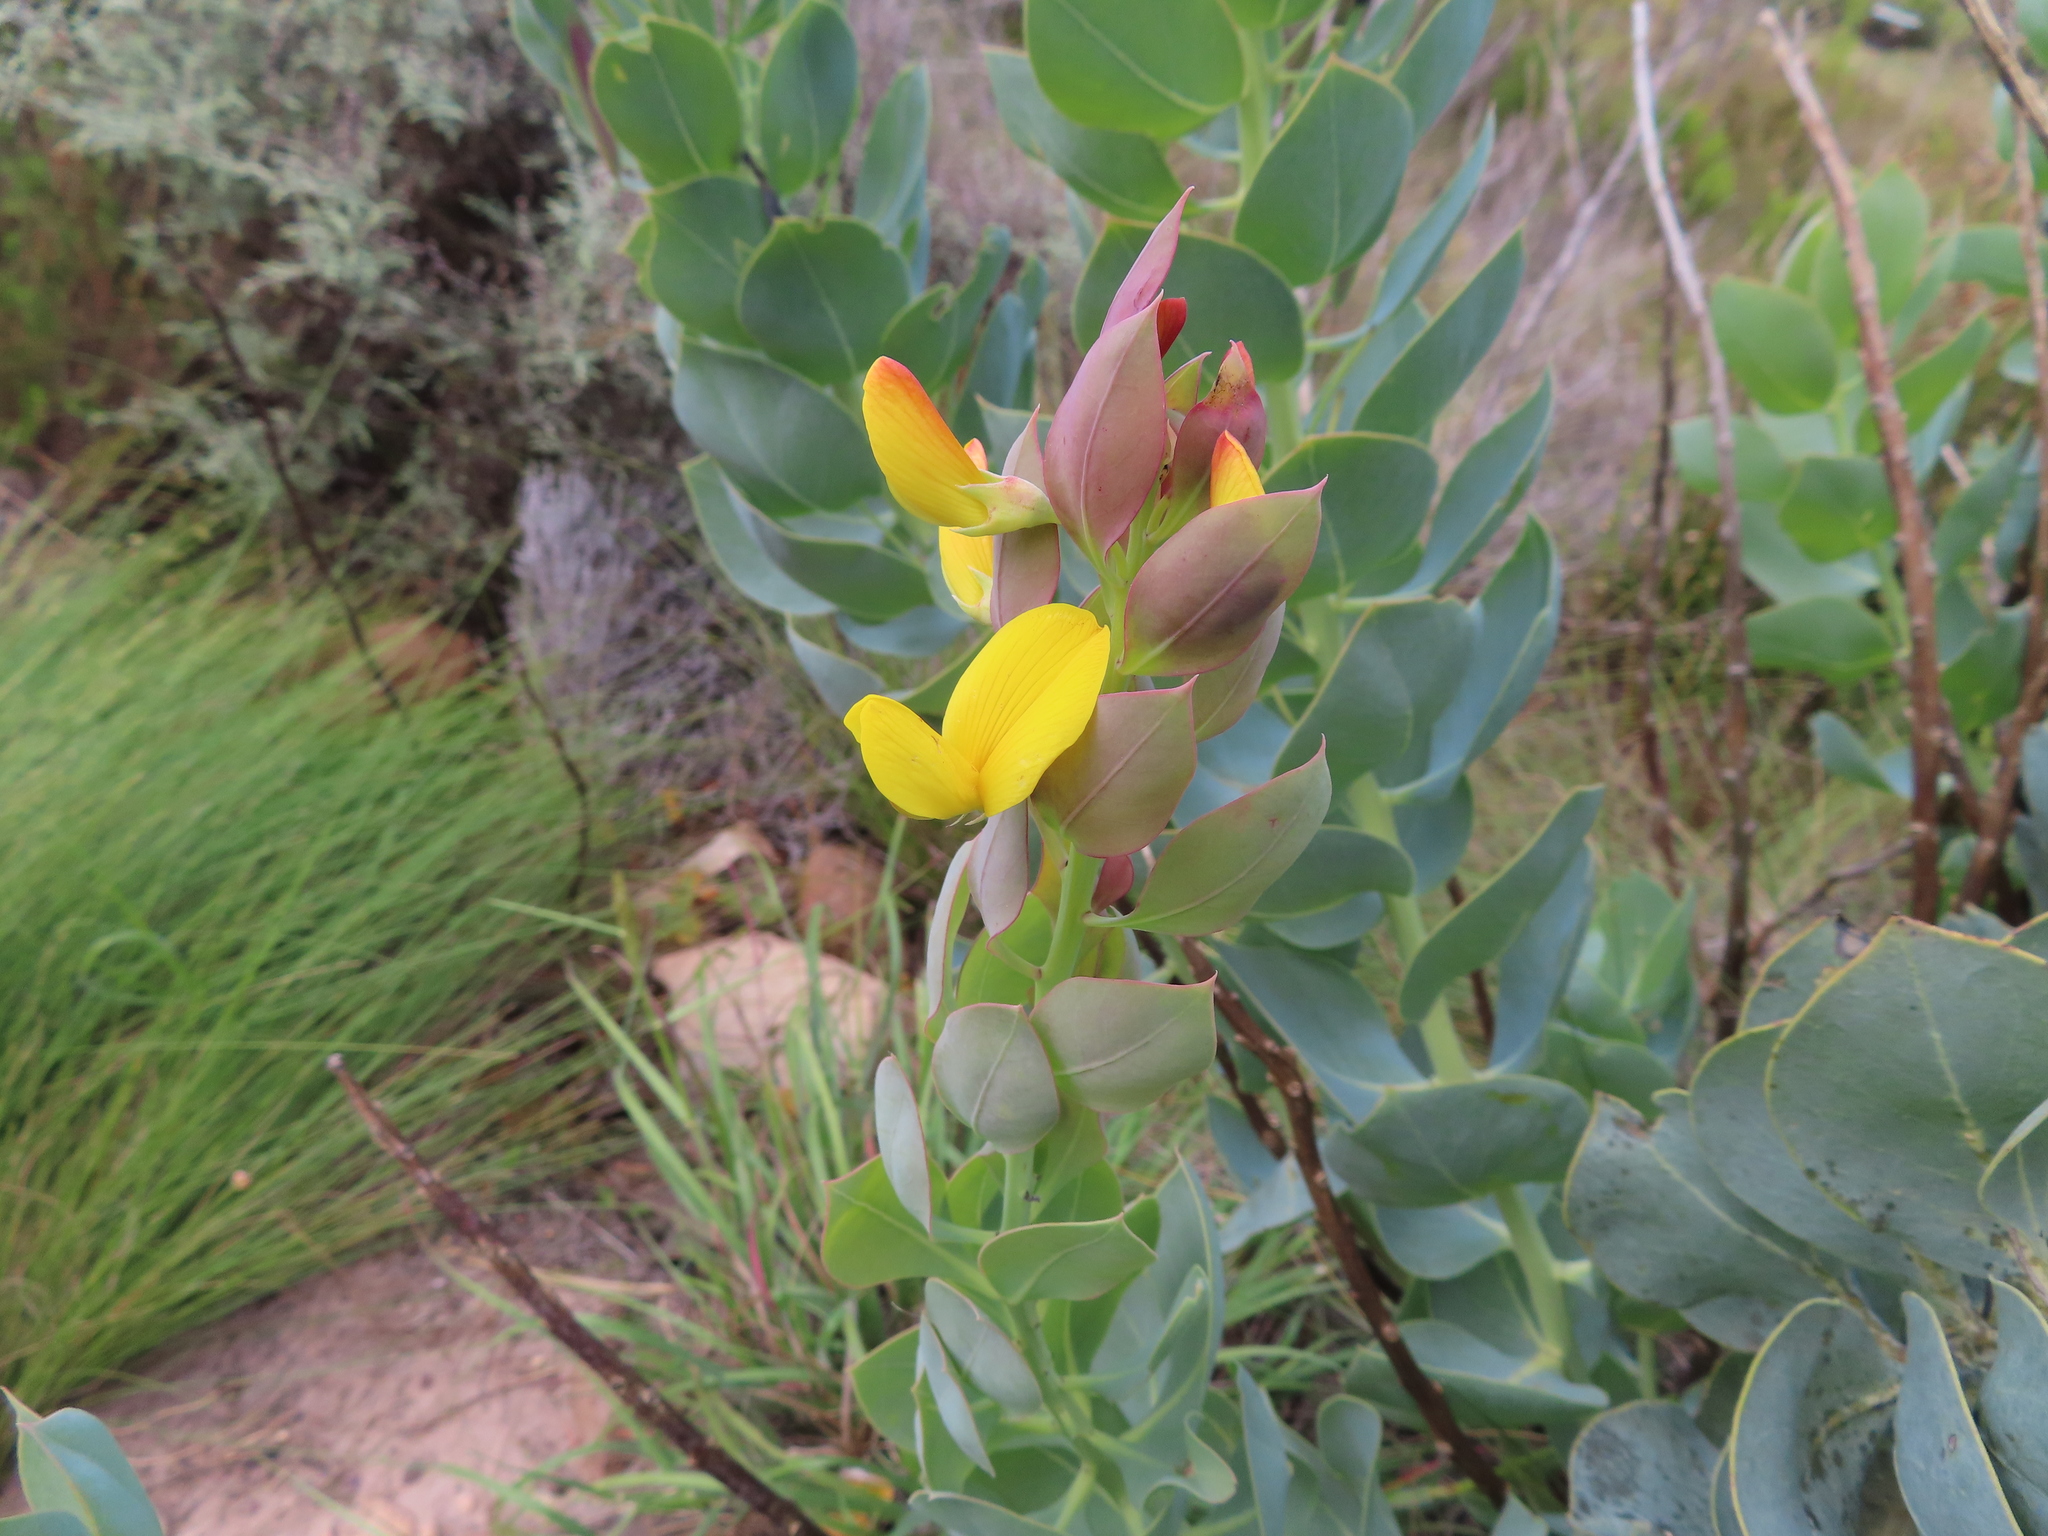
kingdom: Plantae
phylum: Tracheophyta
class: Magnoliopsida
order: Fabales
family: Fabaceae
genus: Rafnia
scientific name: Rafnia triflora
